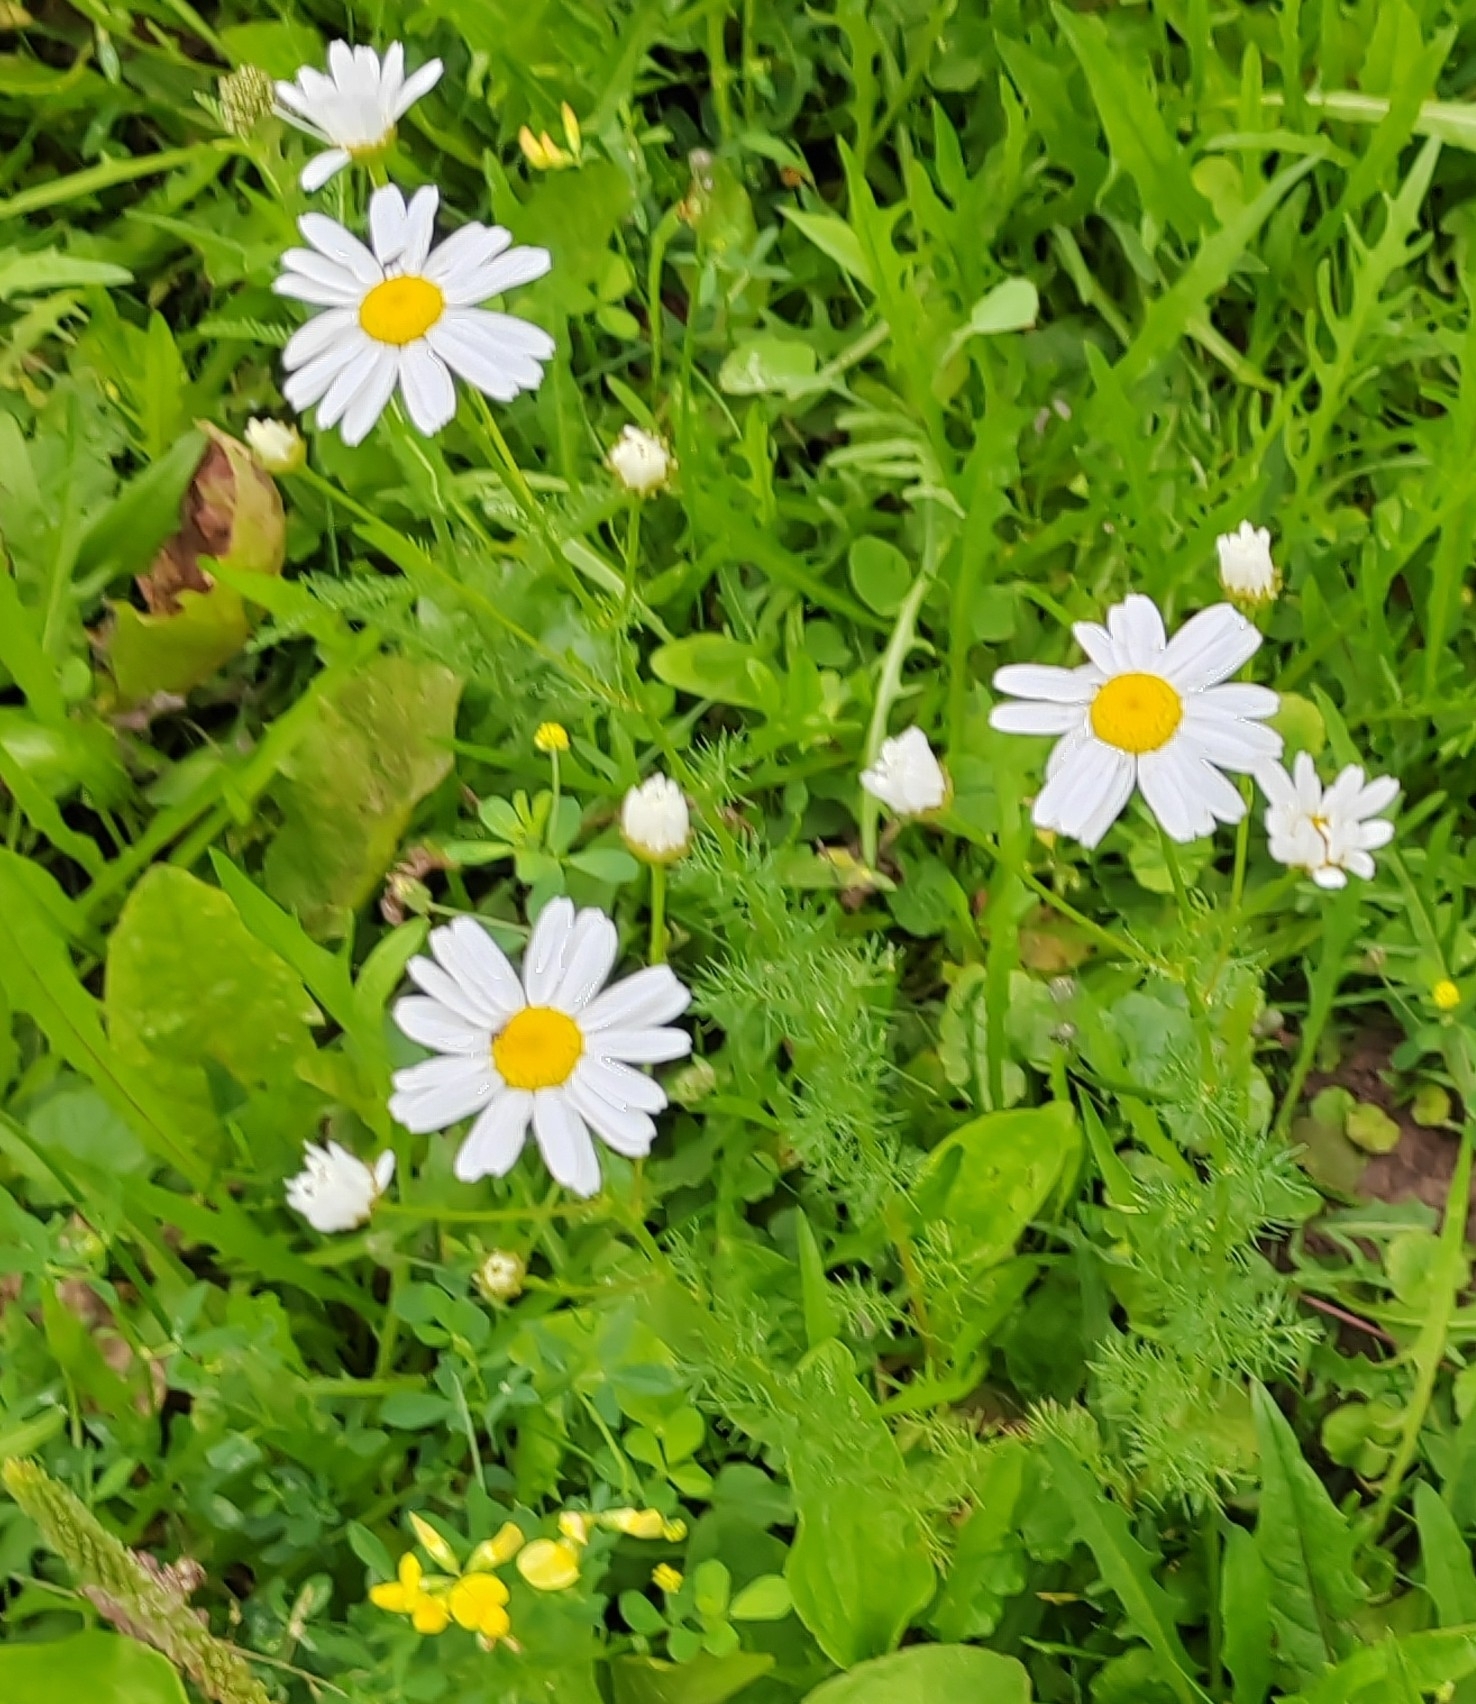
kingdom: Plantae
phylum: Tracheophyta
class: Magnoliopsida
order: Asterales
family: Asteraceae
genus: Tripleurospermum
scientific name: Tripleurospermum inodorum
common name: Scentless mayweed
